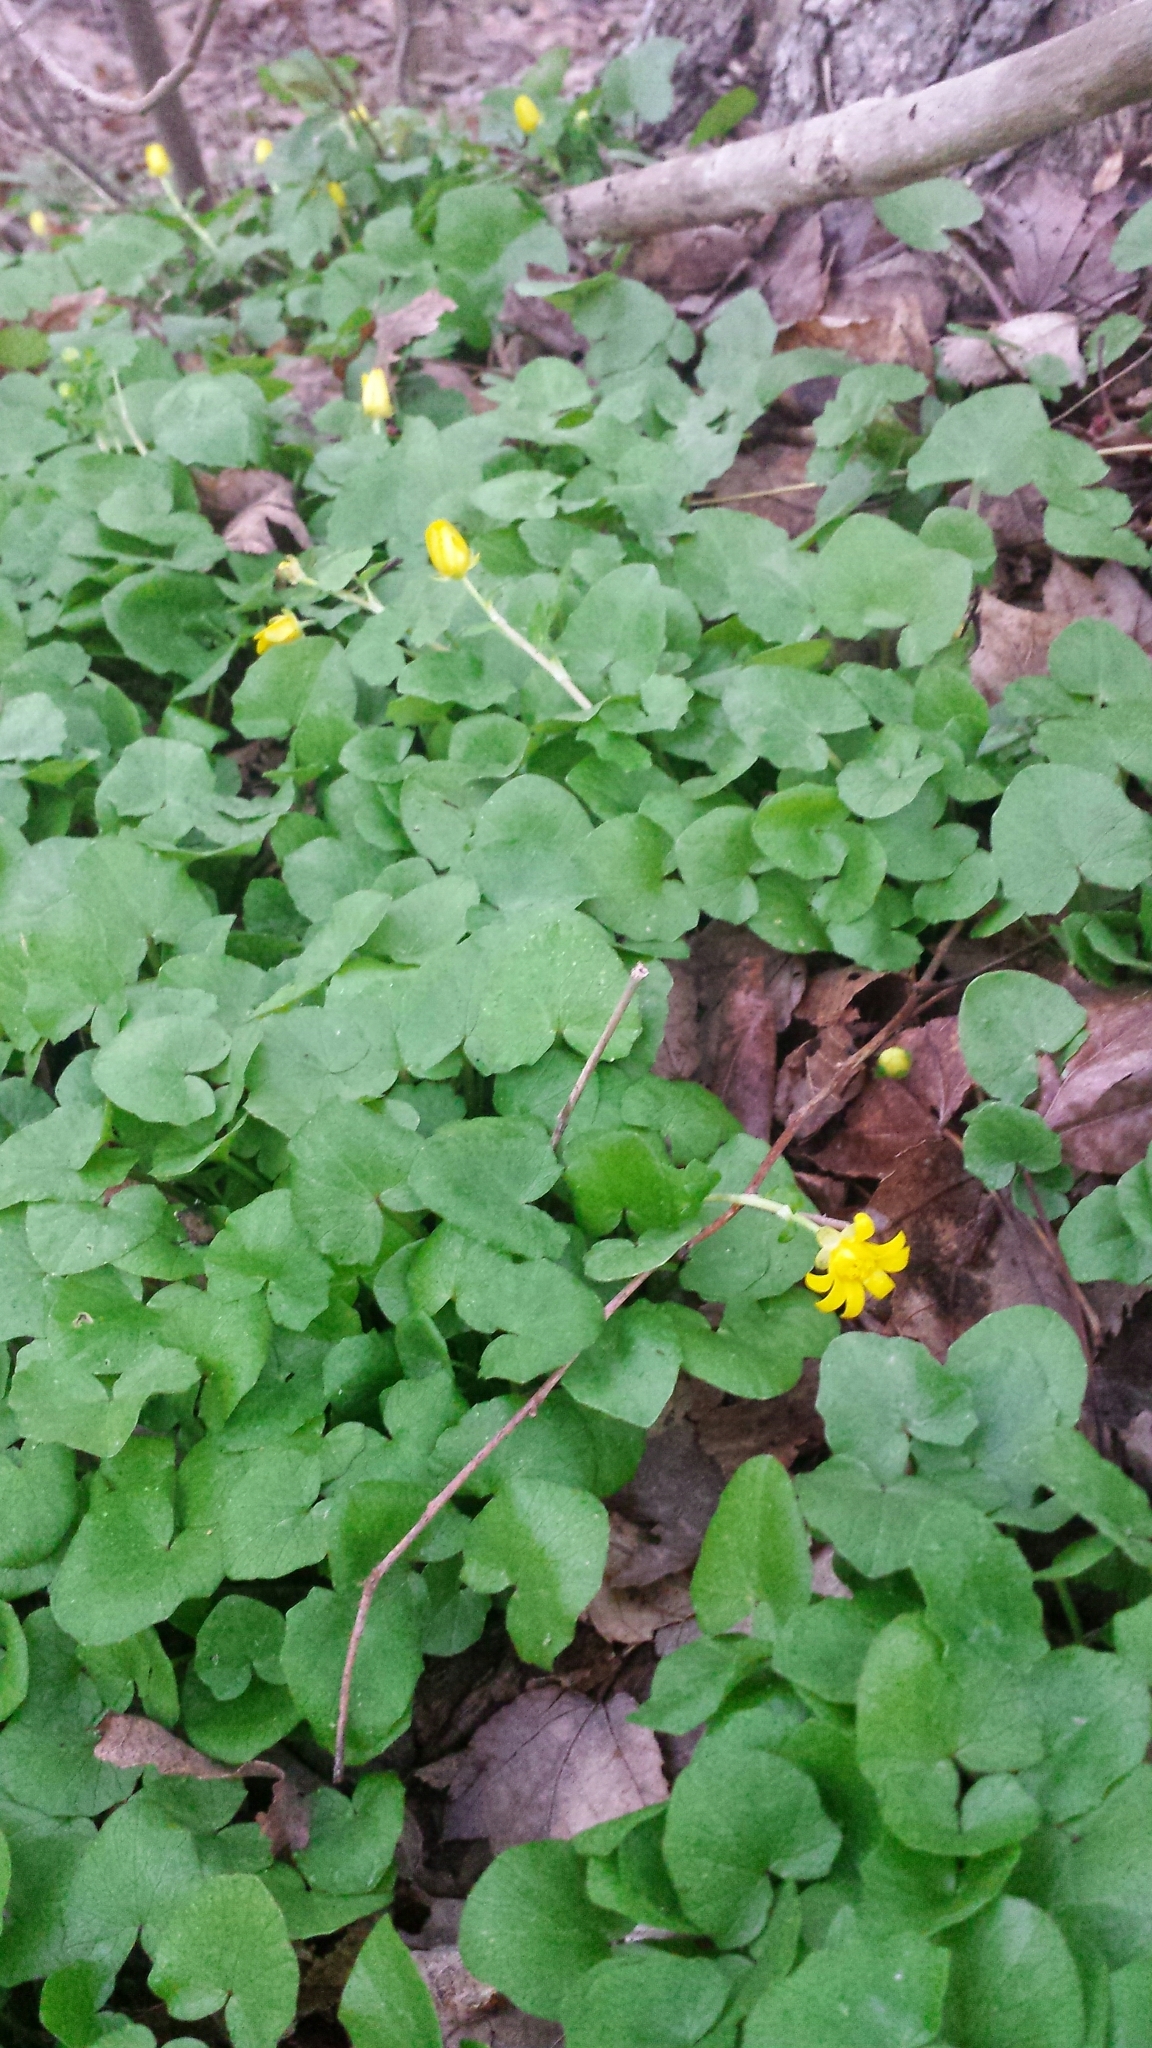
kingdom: Plantae
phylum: Tracheophyta
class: Magnoliopsida
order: Ranunculales
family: Ranunculaceae
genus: Ficaria
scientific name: Ficaria verna
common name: Lesser celandine
